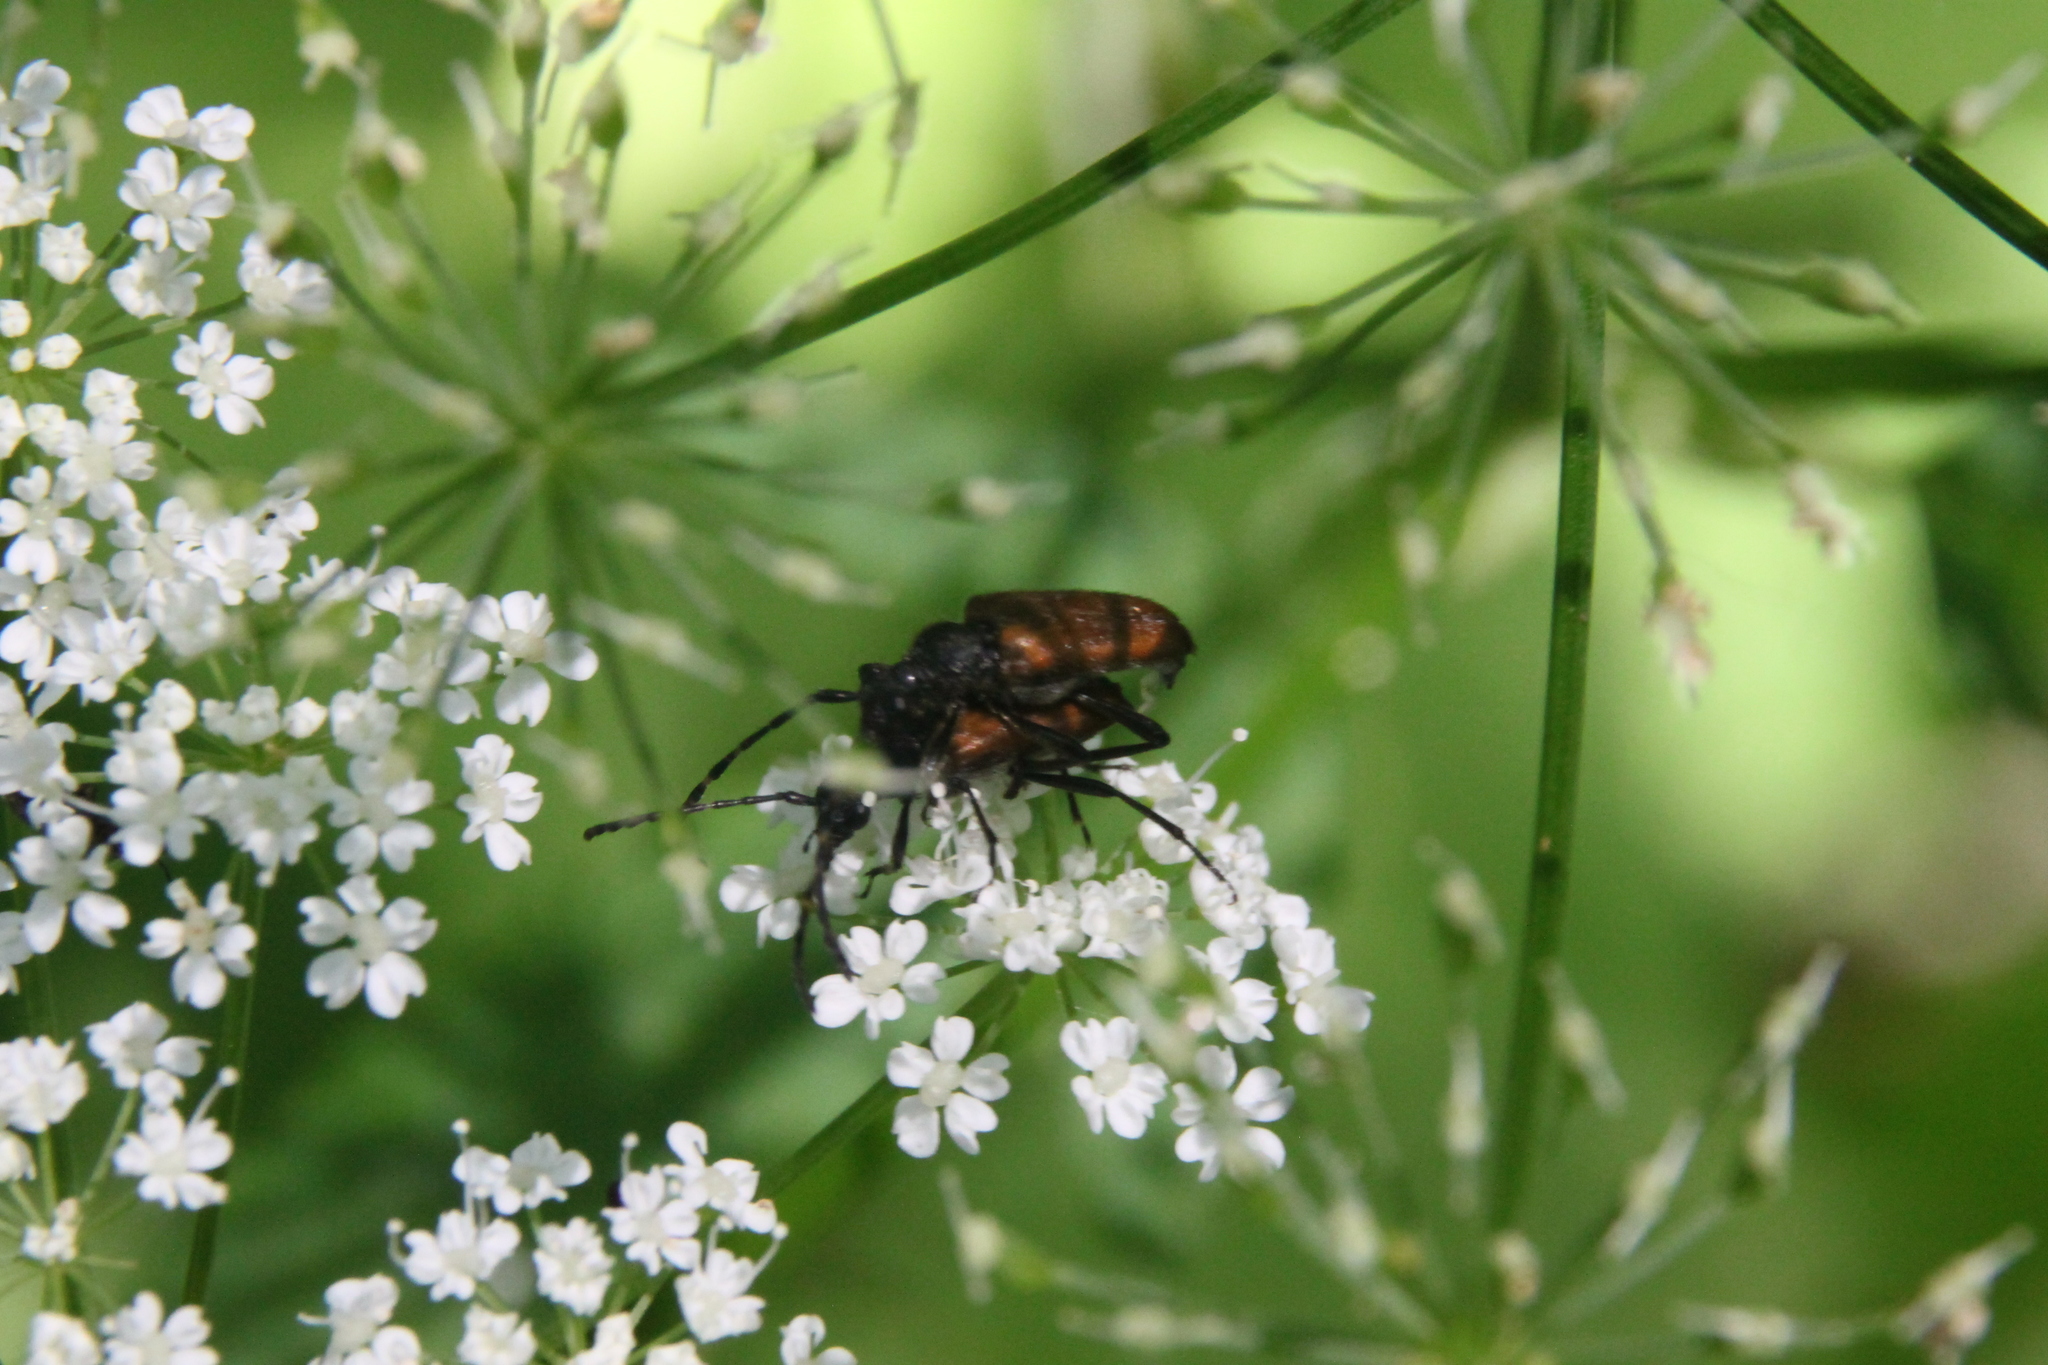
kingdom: Animalia
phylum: Arthropoda
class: Insecta
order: Coleoptera
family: Cerambycidae
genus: Paracorymbia
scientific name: Paracorymbia maculicornis
